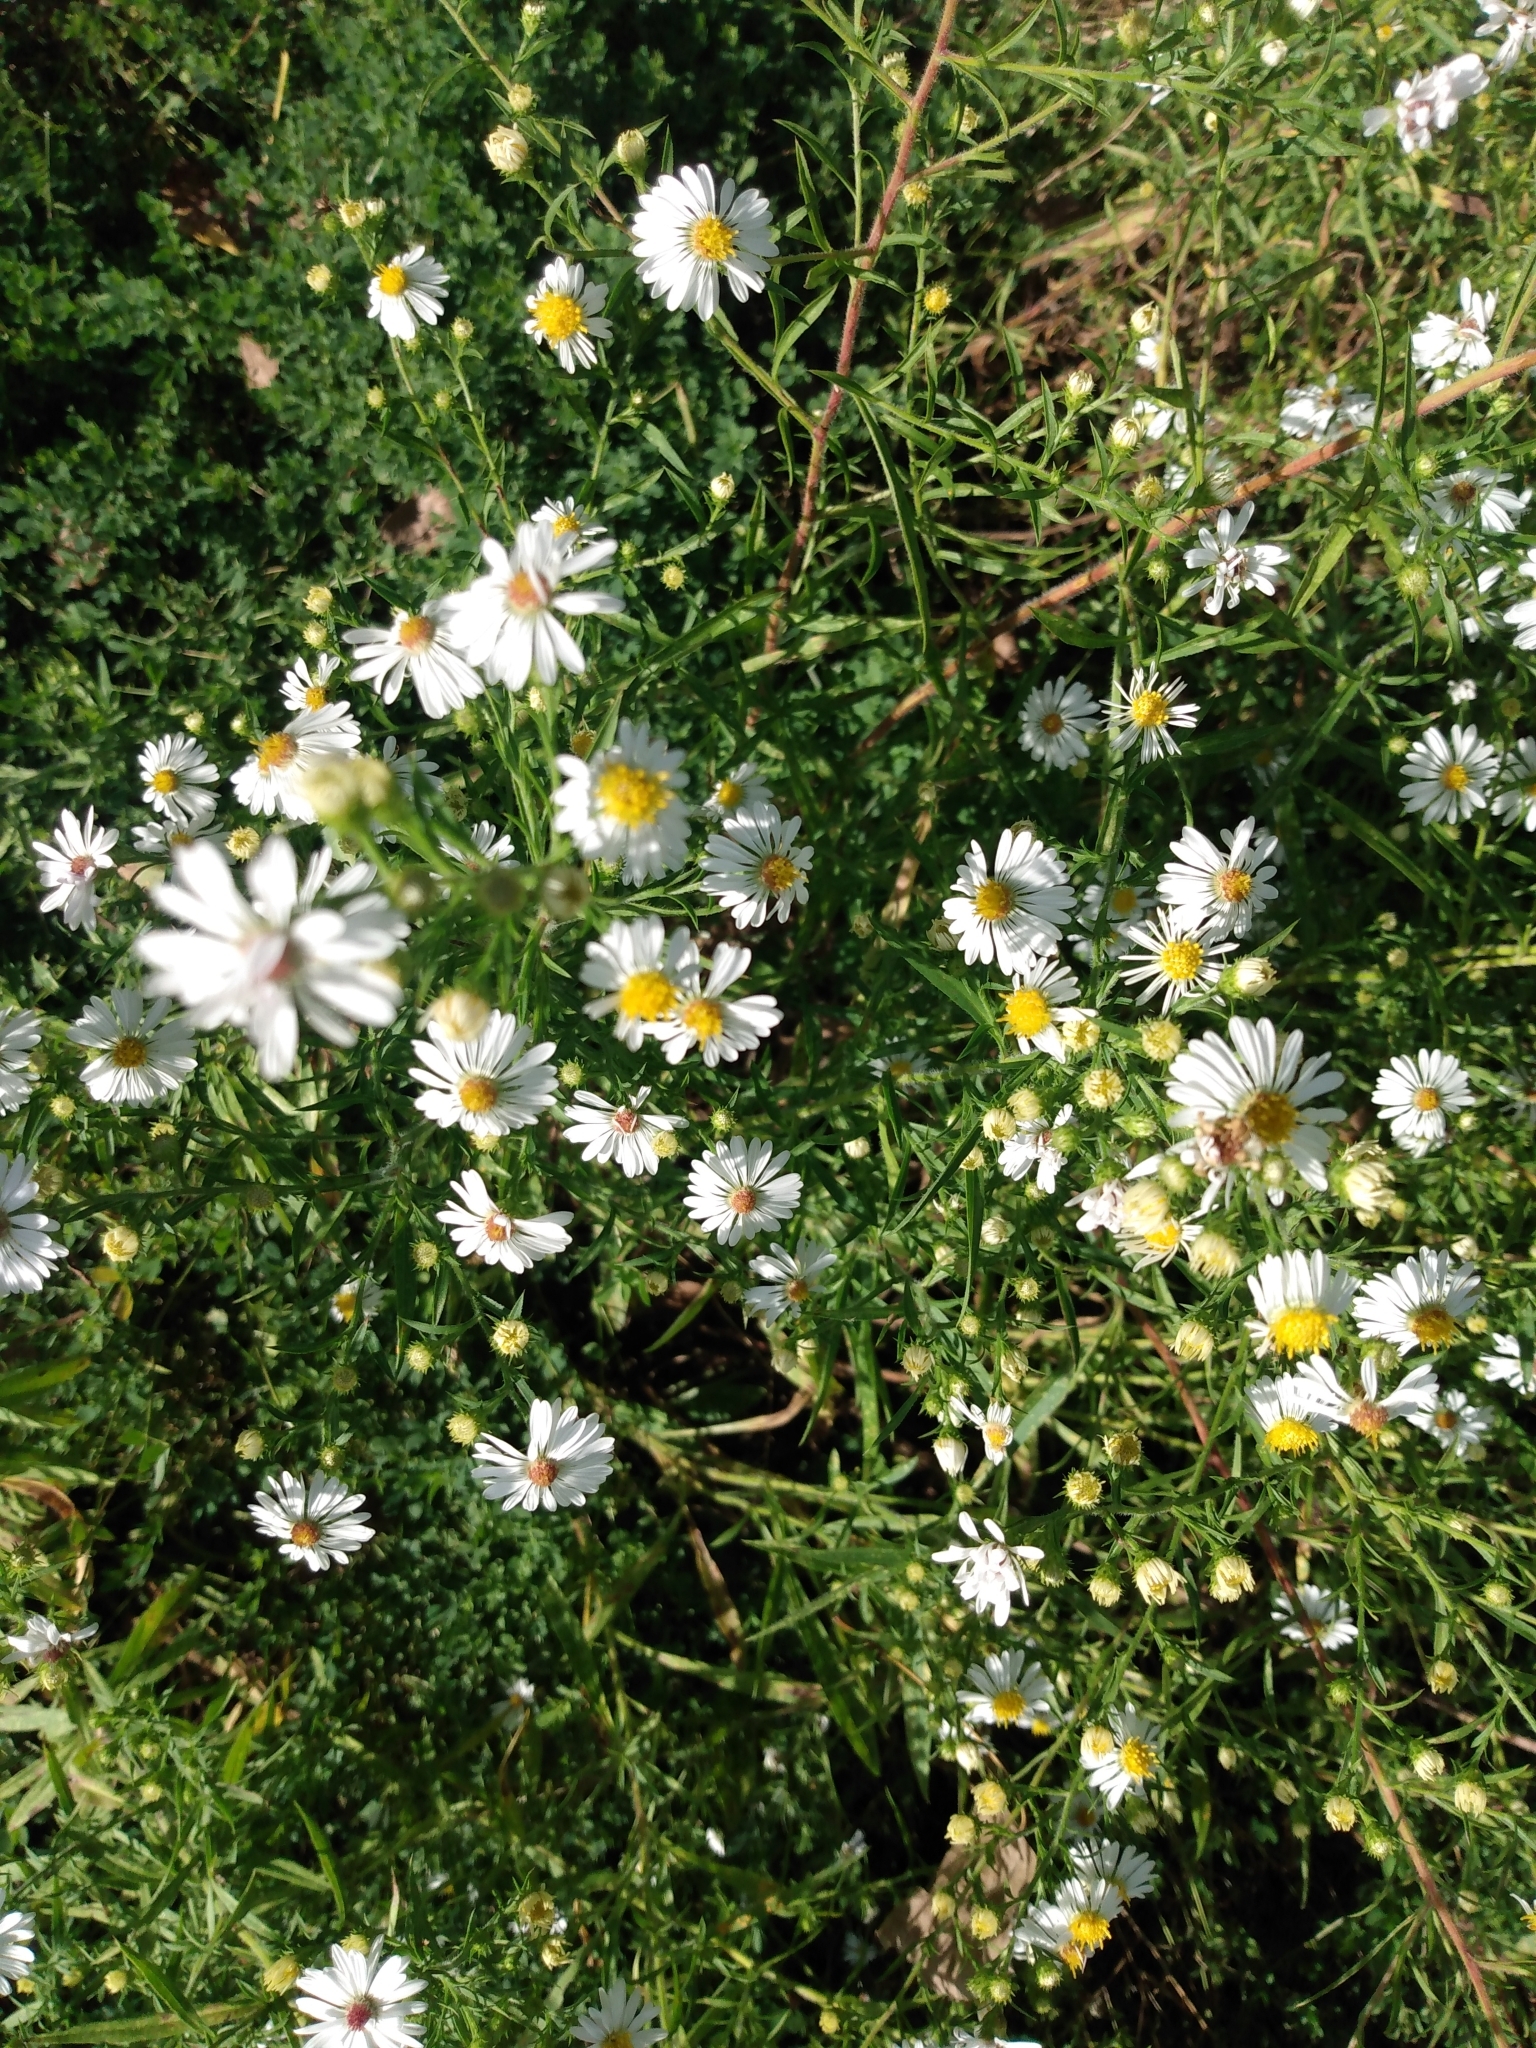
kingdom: Plantae
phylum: Tracheophyta
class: Magnoliopsida
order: Asterales
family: Asteraceae
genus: Symphyotrichum
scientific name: Symphyotrichum pilosum
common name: Awl aster
